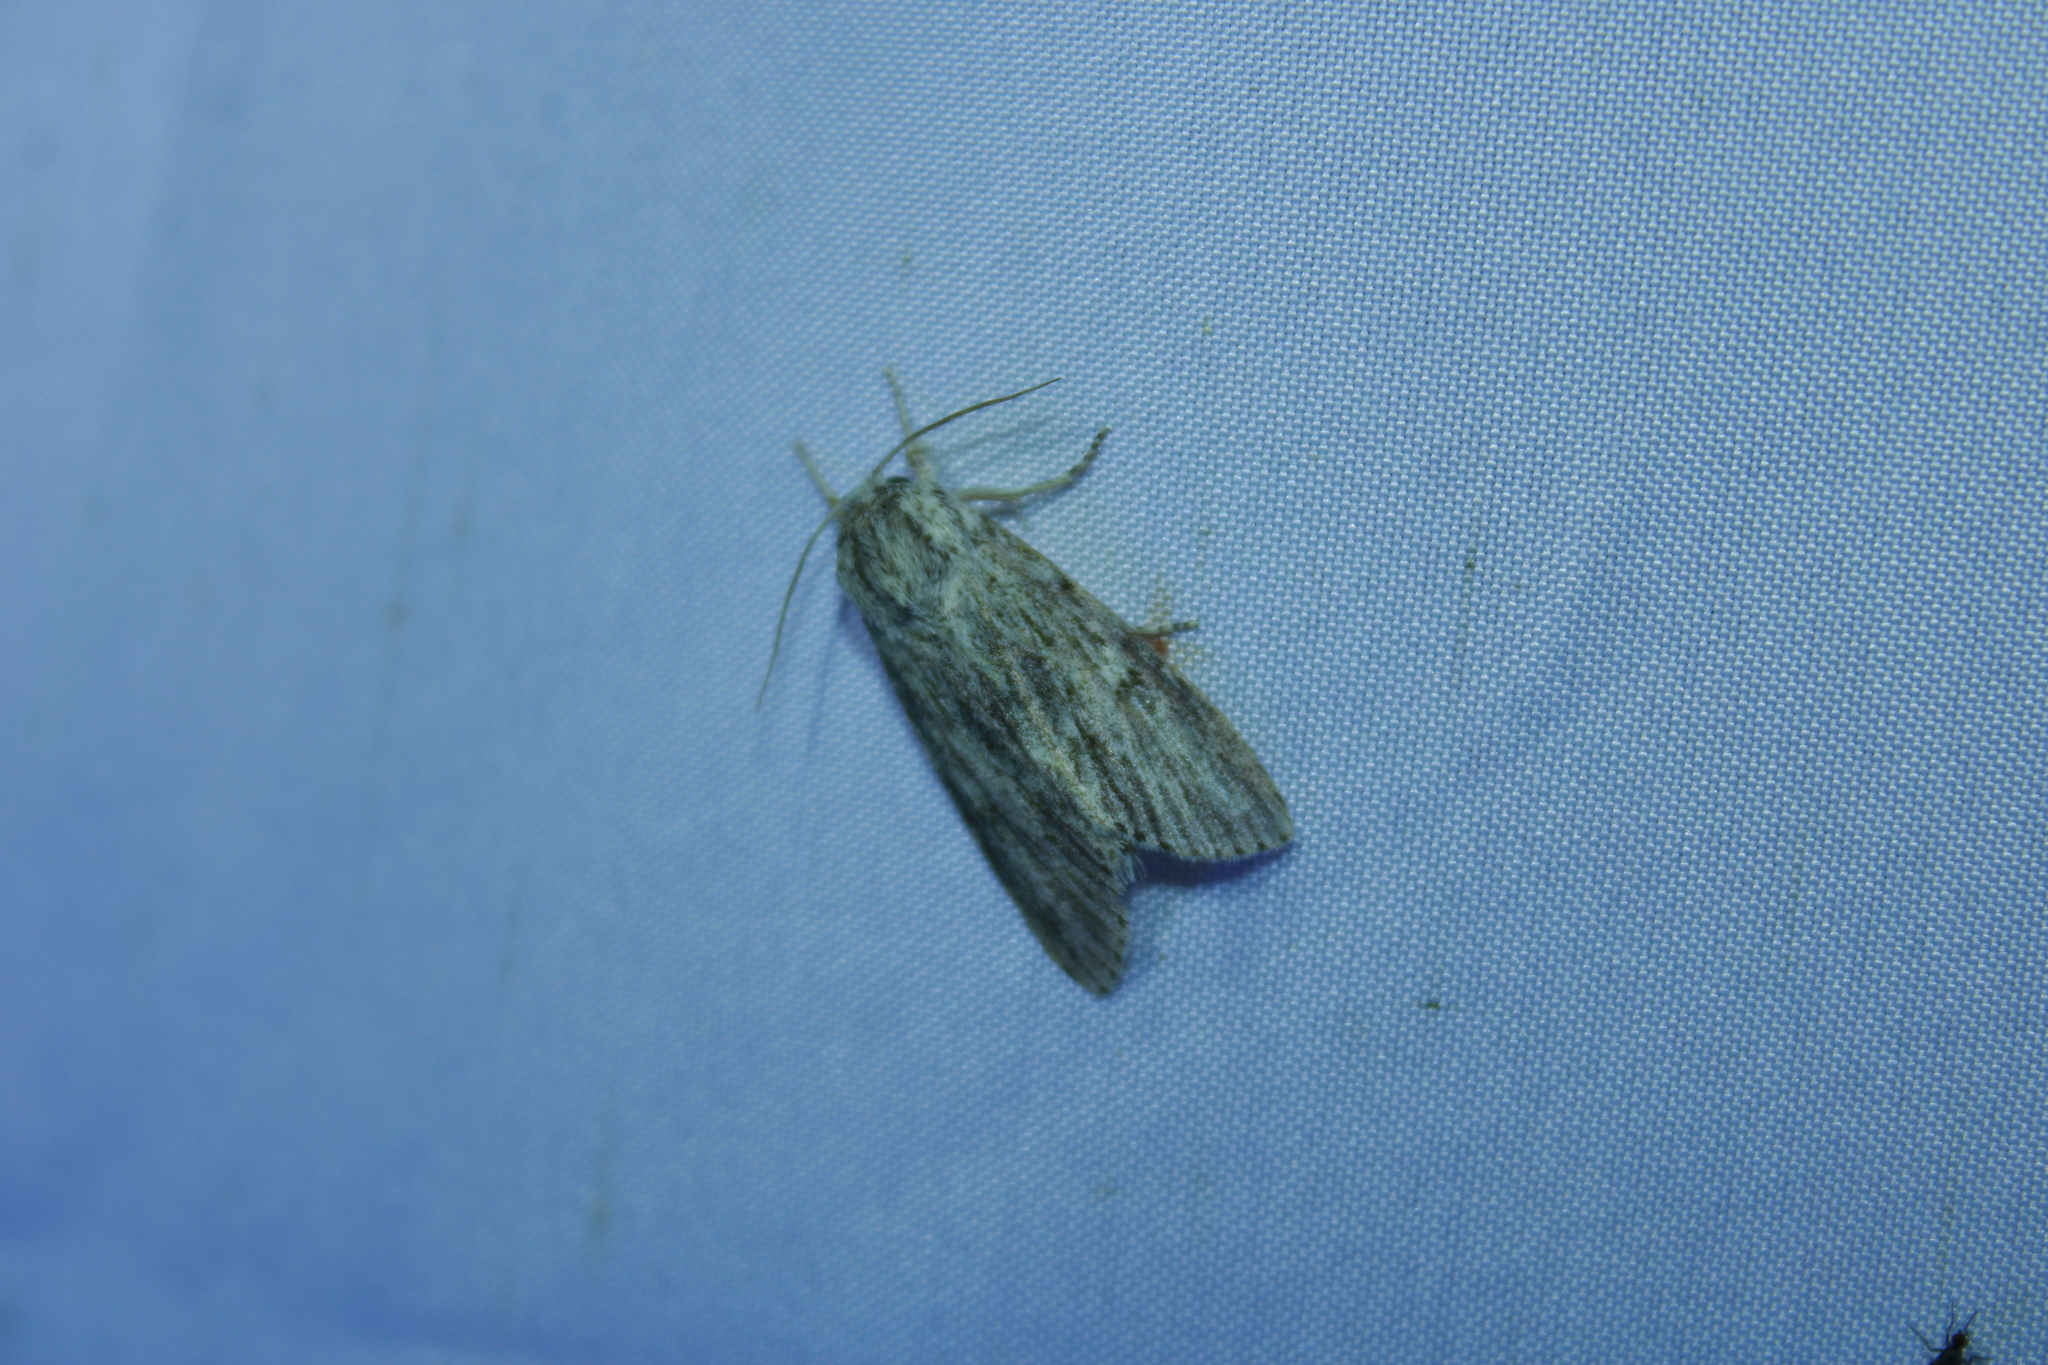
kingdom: Animalia
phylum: Arthropoda
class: Insecta
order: Lepidoptera
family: Noctuidae
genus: Acronicta
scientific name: Acronicta oblinita
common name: Smeared dagger
